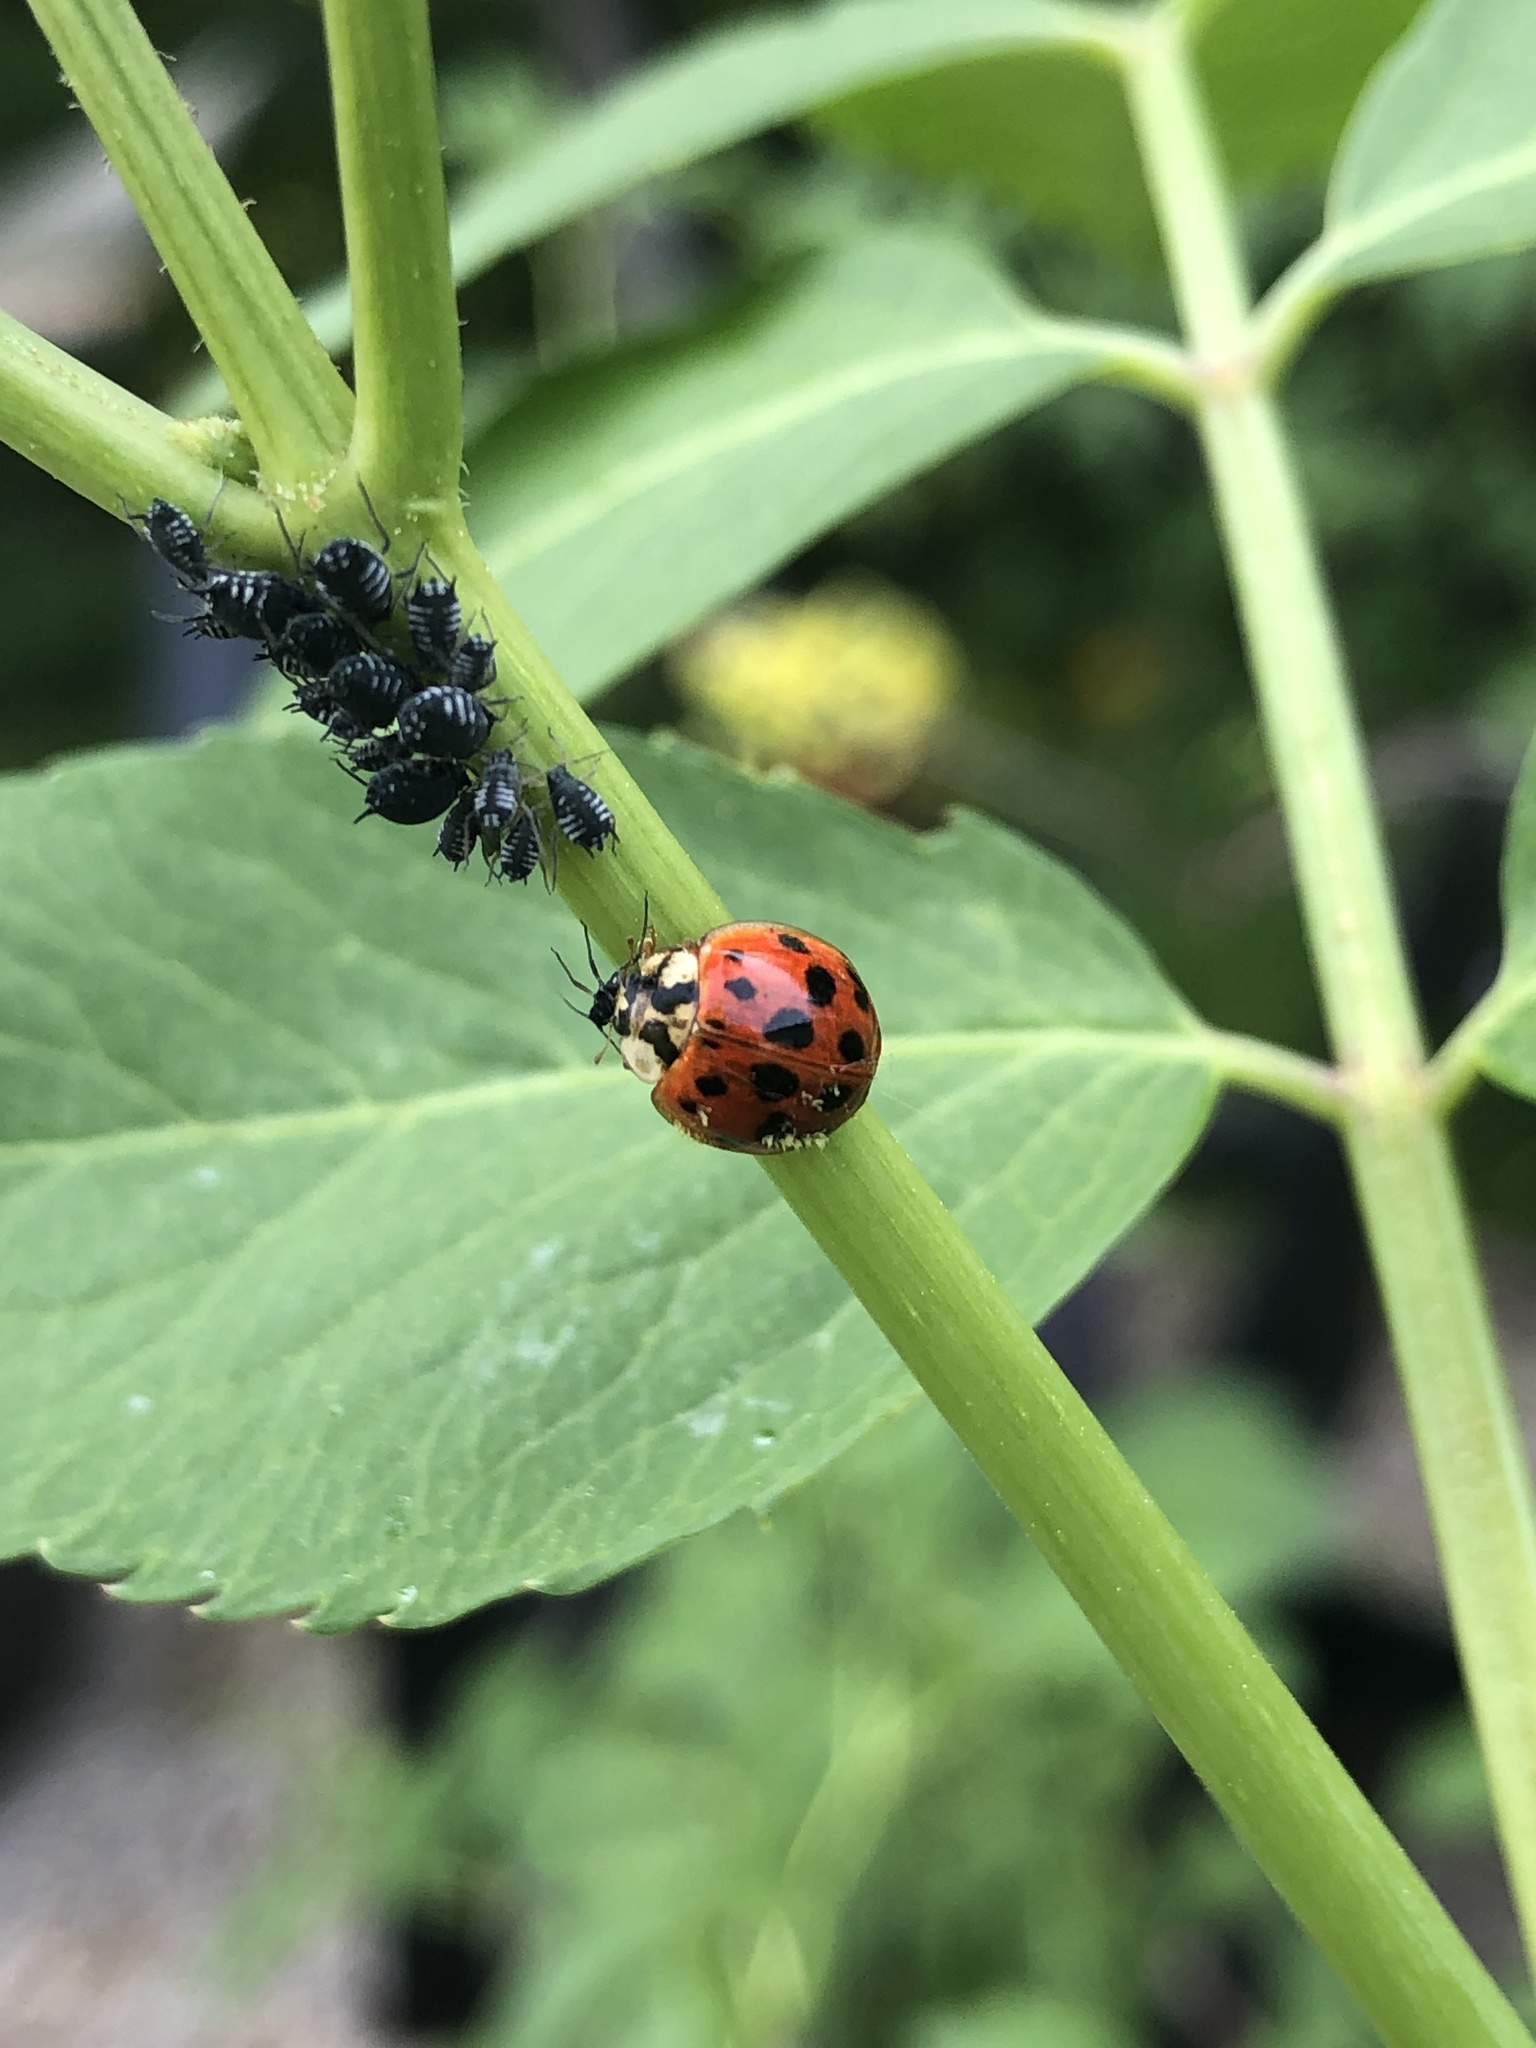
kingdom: Animalia
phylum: Arthropoda
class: Insecta
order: Coleoptera
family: Coccinellidae
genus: Harmonia
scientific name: Harmonia axyridis
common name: Harlequin ladybird
